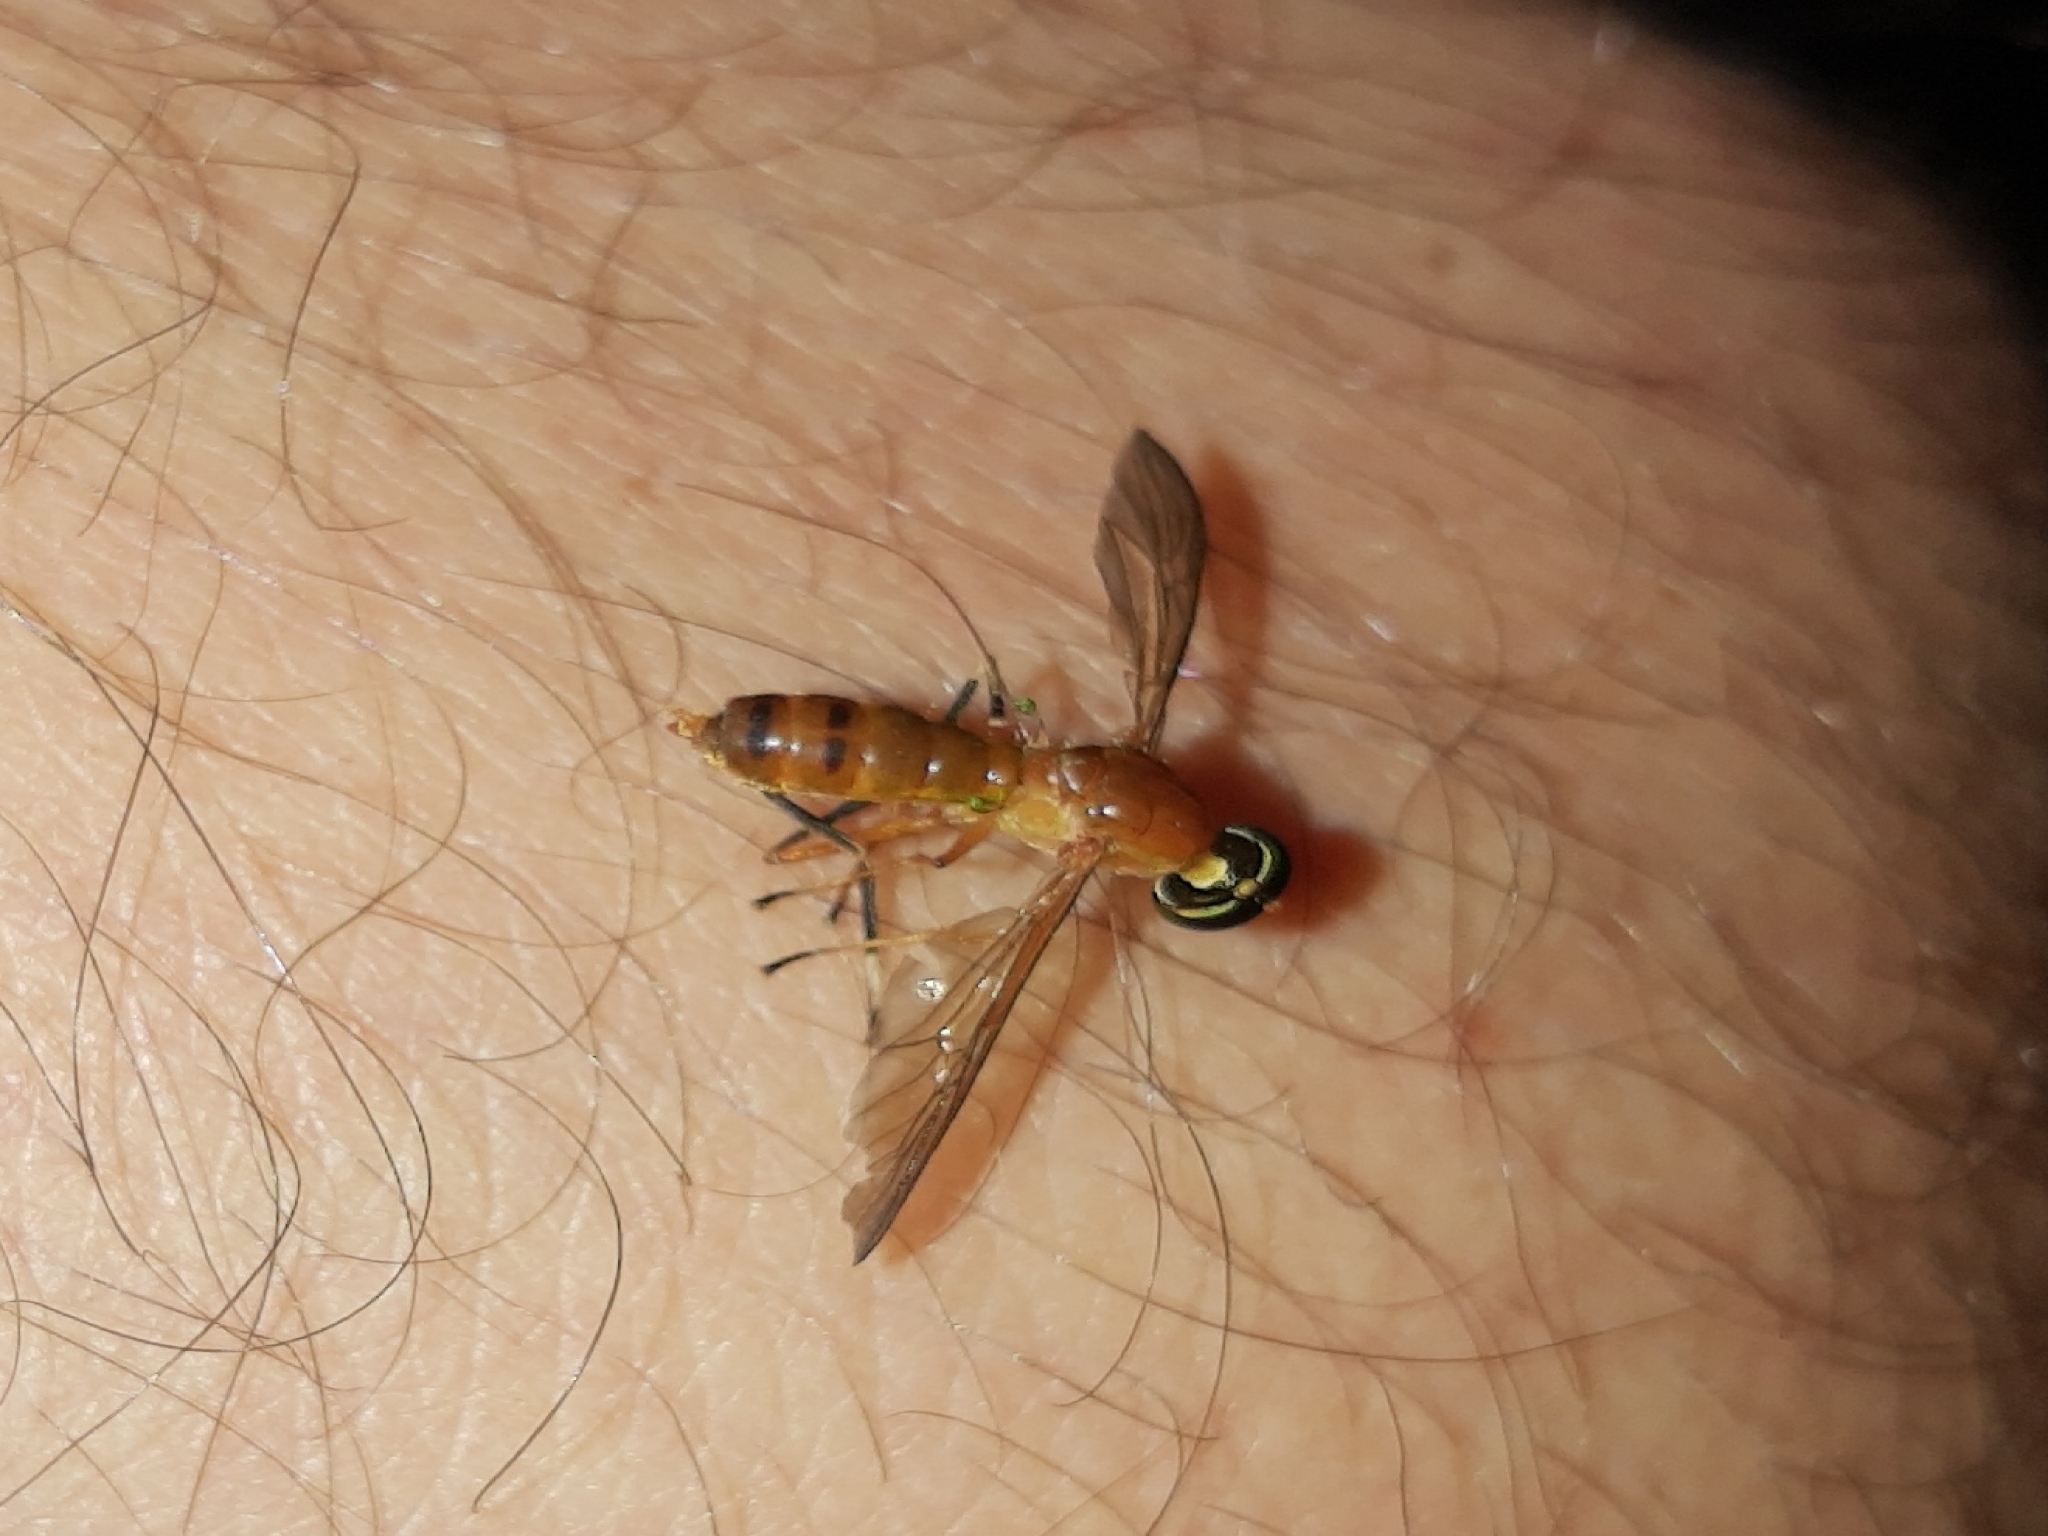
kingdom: Animalia
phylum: Arthropoda
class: Insecta
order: Diptera
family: Stratiomyidae
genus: Ptecticus
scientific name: Ptecticus testaceus
